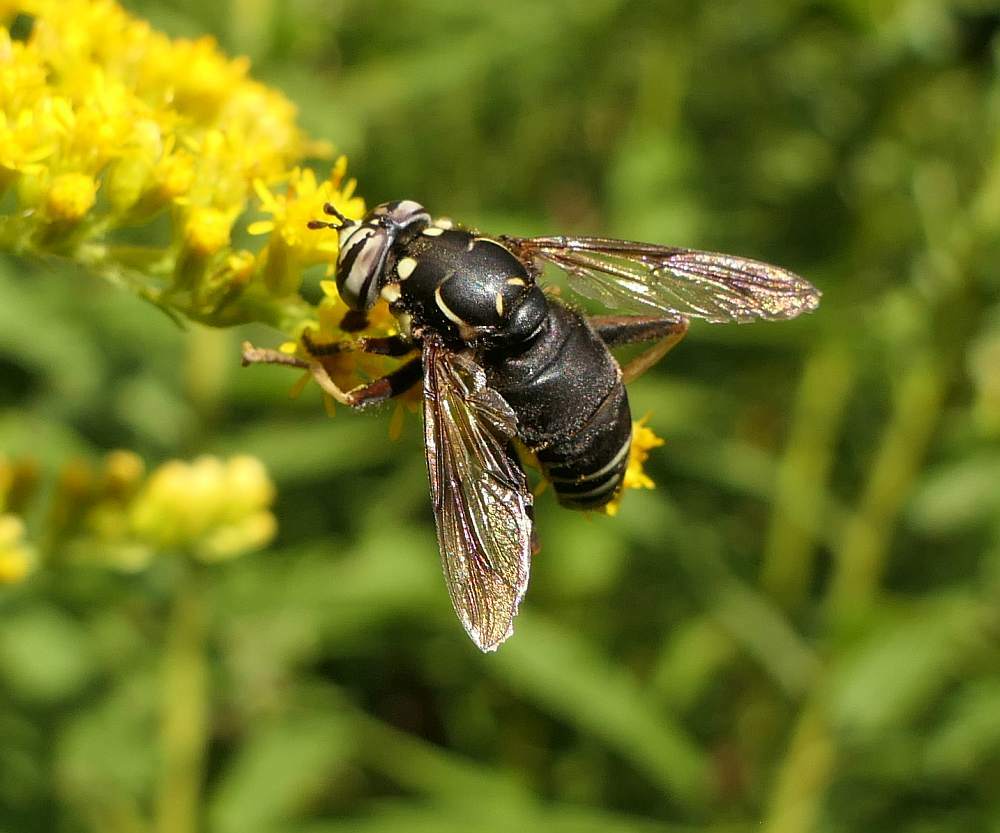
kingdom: Animalia
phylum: Arthropoda
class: Insecta
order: Diptera
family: Syrphidae
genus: Spilomyia
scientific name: Spilomyia fusca
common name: Bald-faced hornet fly
